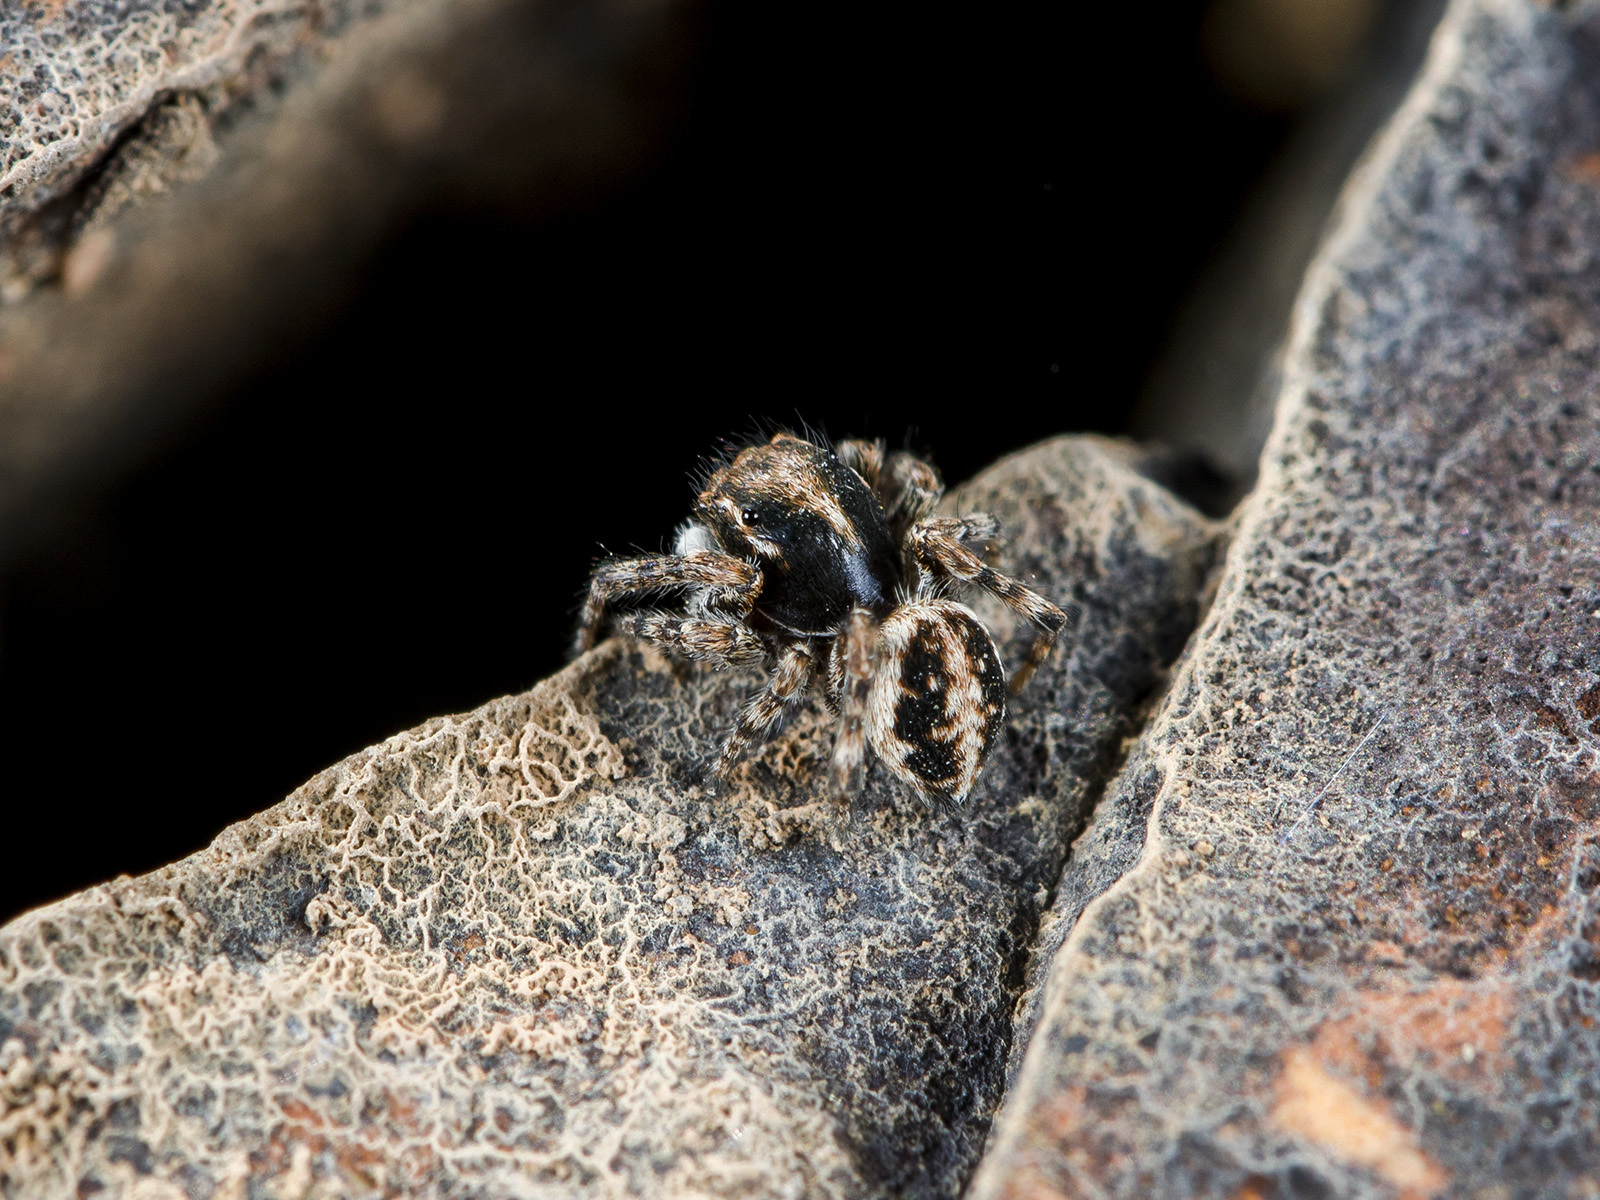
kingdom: Animalia
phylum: Arthropoda
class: Arachnida
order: Araneae
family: Salticidae
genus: Attulus
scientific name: Attulus distinguendus
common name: Distinguished jumper
